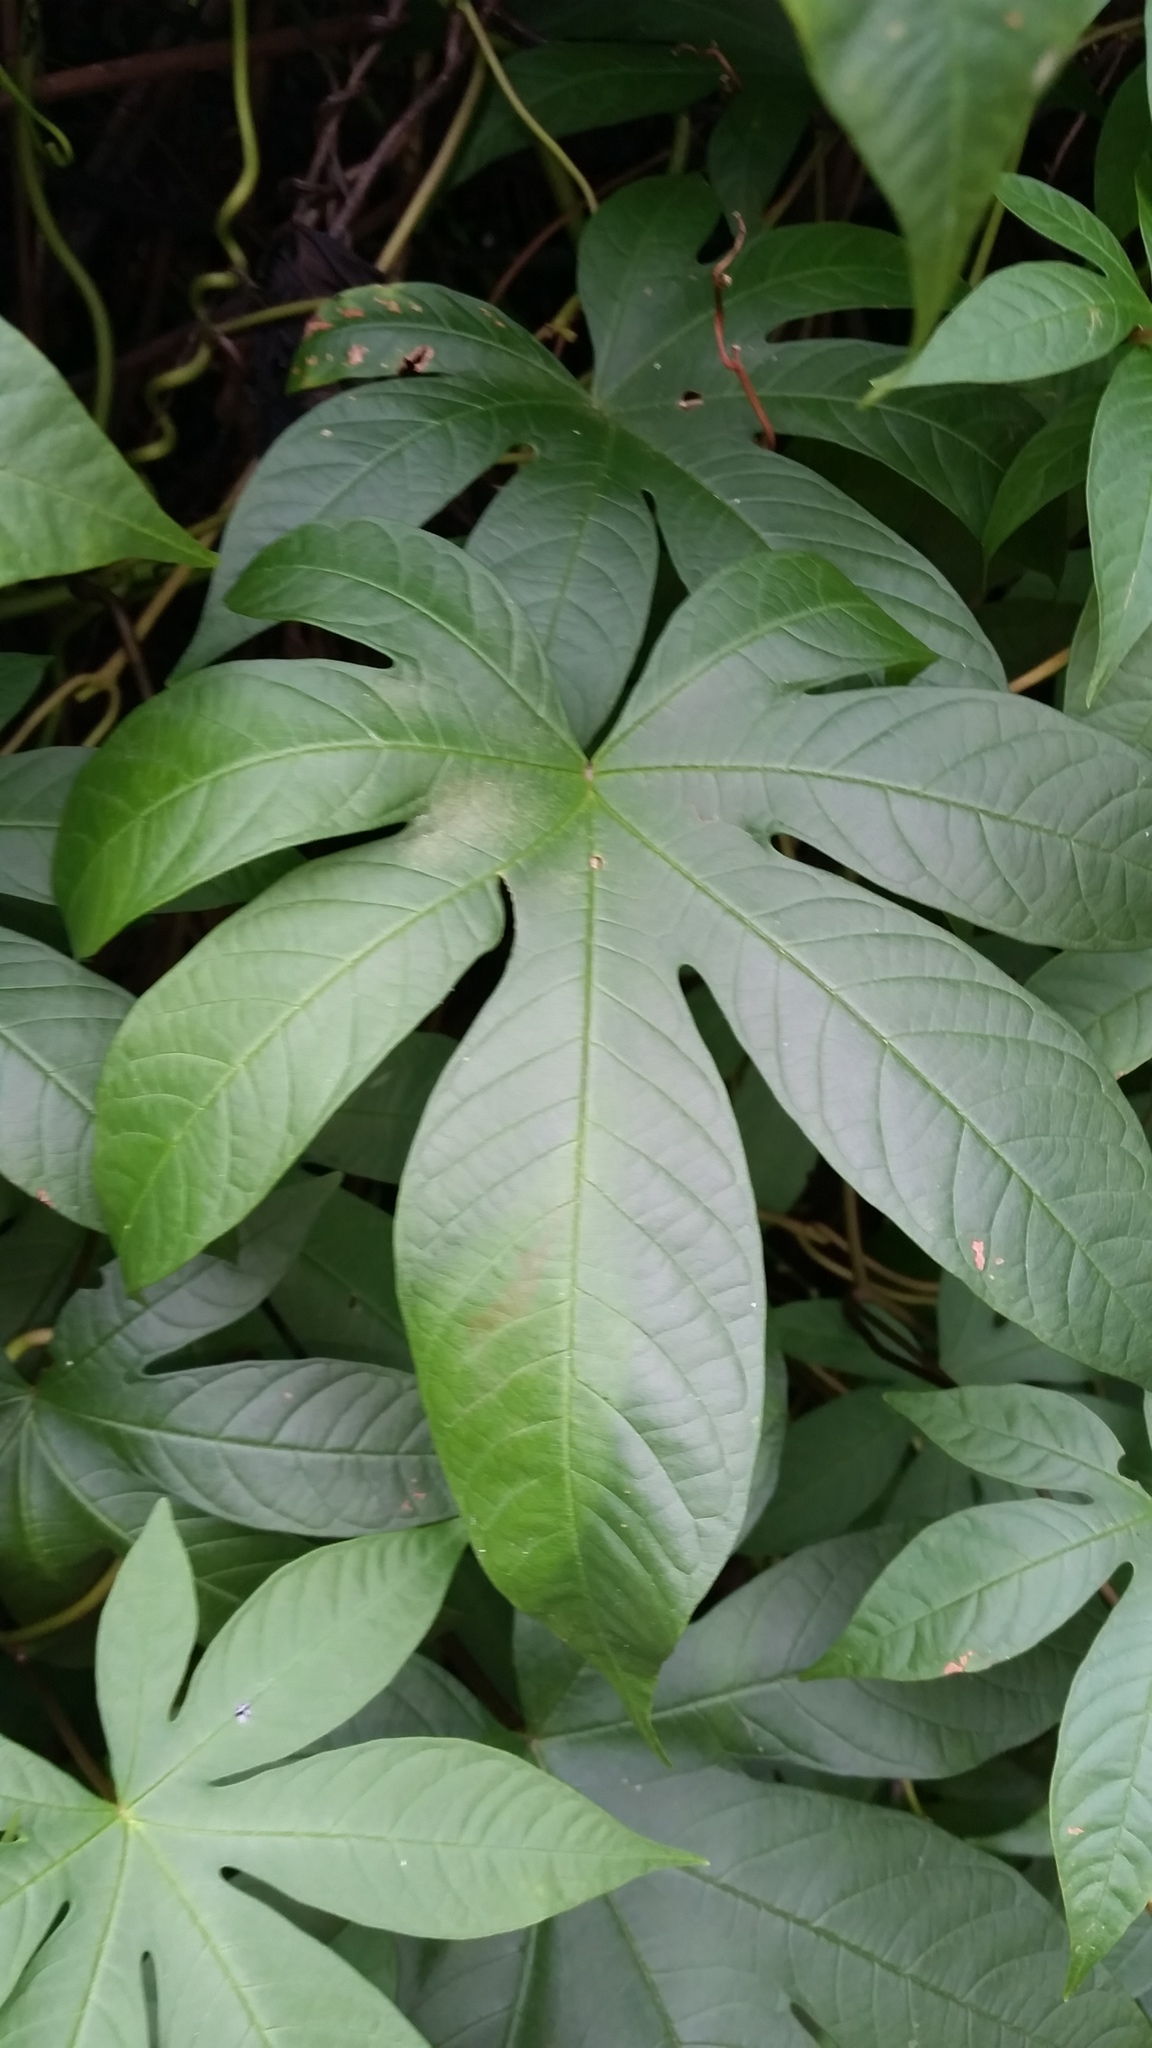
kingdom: Plantae
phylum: Tracheophyta
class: Magnoliopsida
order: Solanales
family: Convolvulaceae
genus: Distimake
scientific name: Distimake tuberosus
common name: Spanish arborvine
